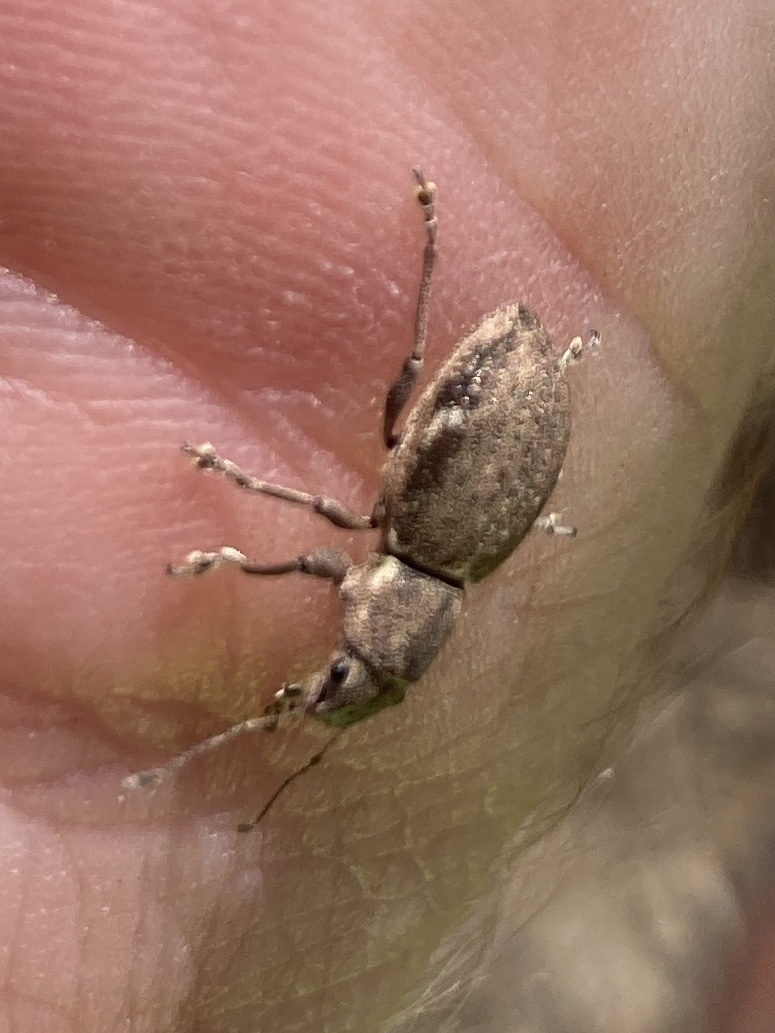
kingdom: Animalia
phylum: Arthropoda
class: Insecta
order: Coleoptera
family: Curculionidae
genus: Naupactus
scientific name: Naupactus cervinus
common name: Fuller rose beetle
